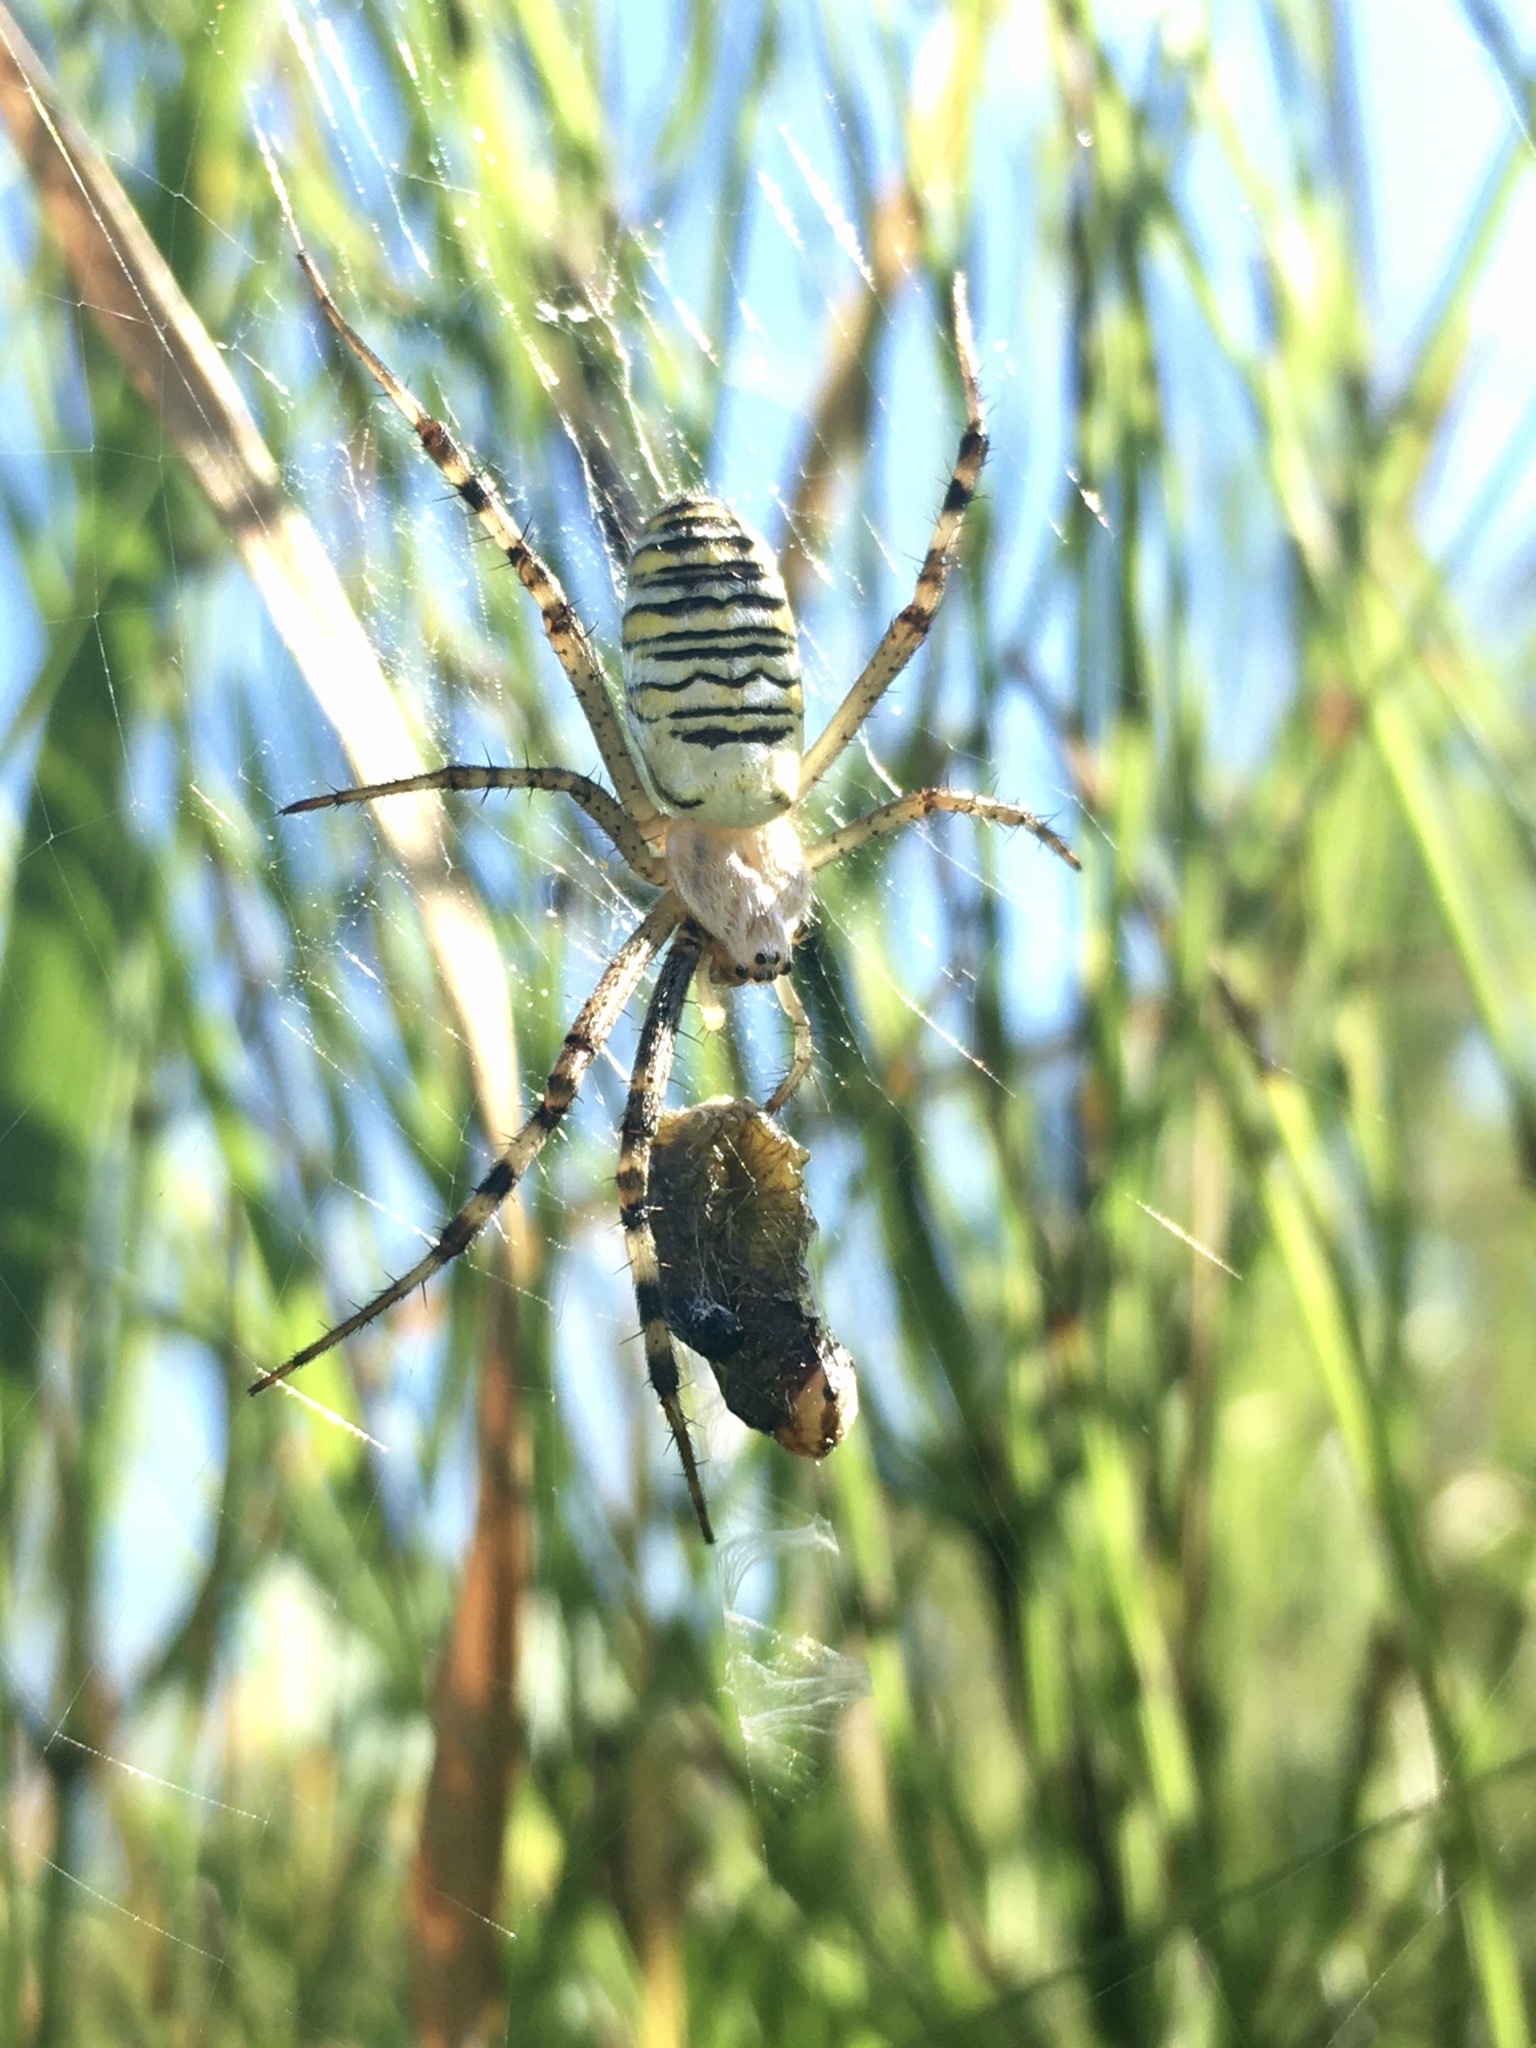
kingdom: Animalia
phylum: Arthropoda
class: Arachnida
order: Araneae
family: Araneidae
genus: Argiope
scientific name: Argiope bruennichi
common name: Wasp spider
